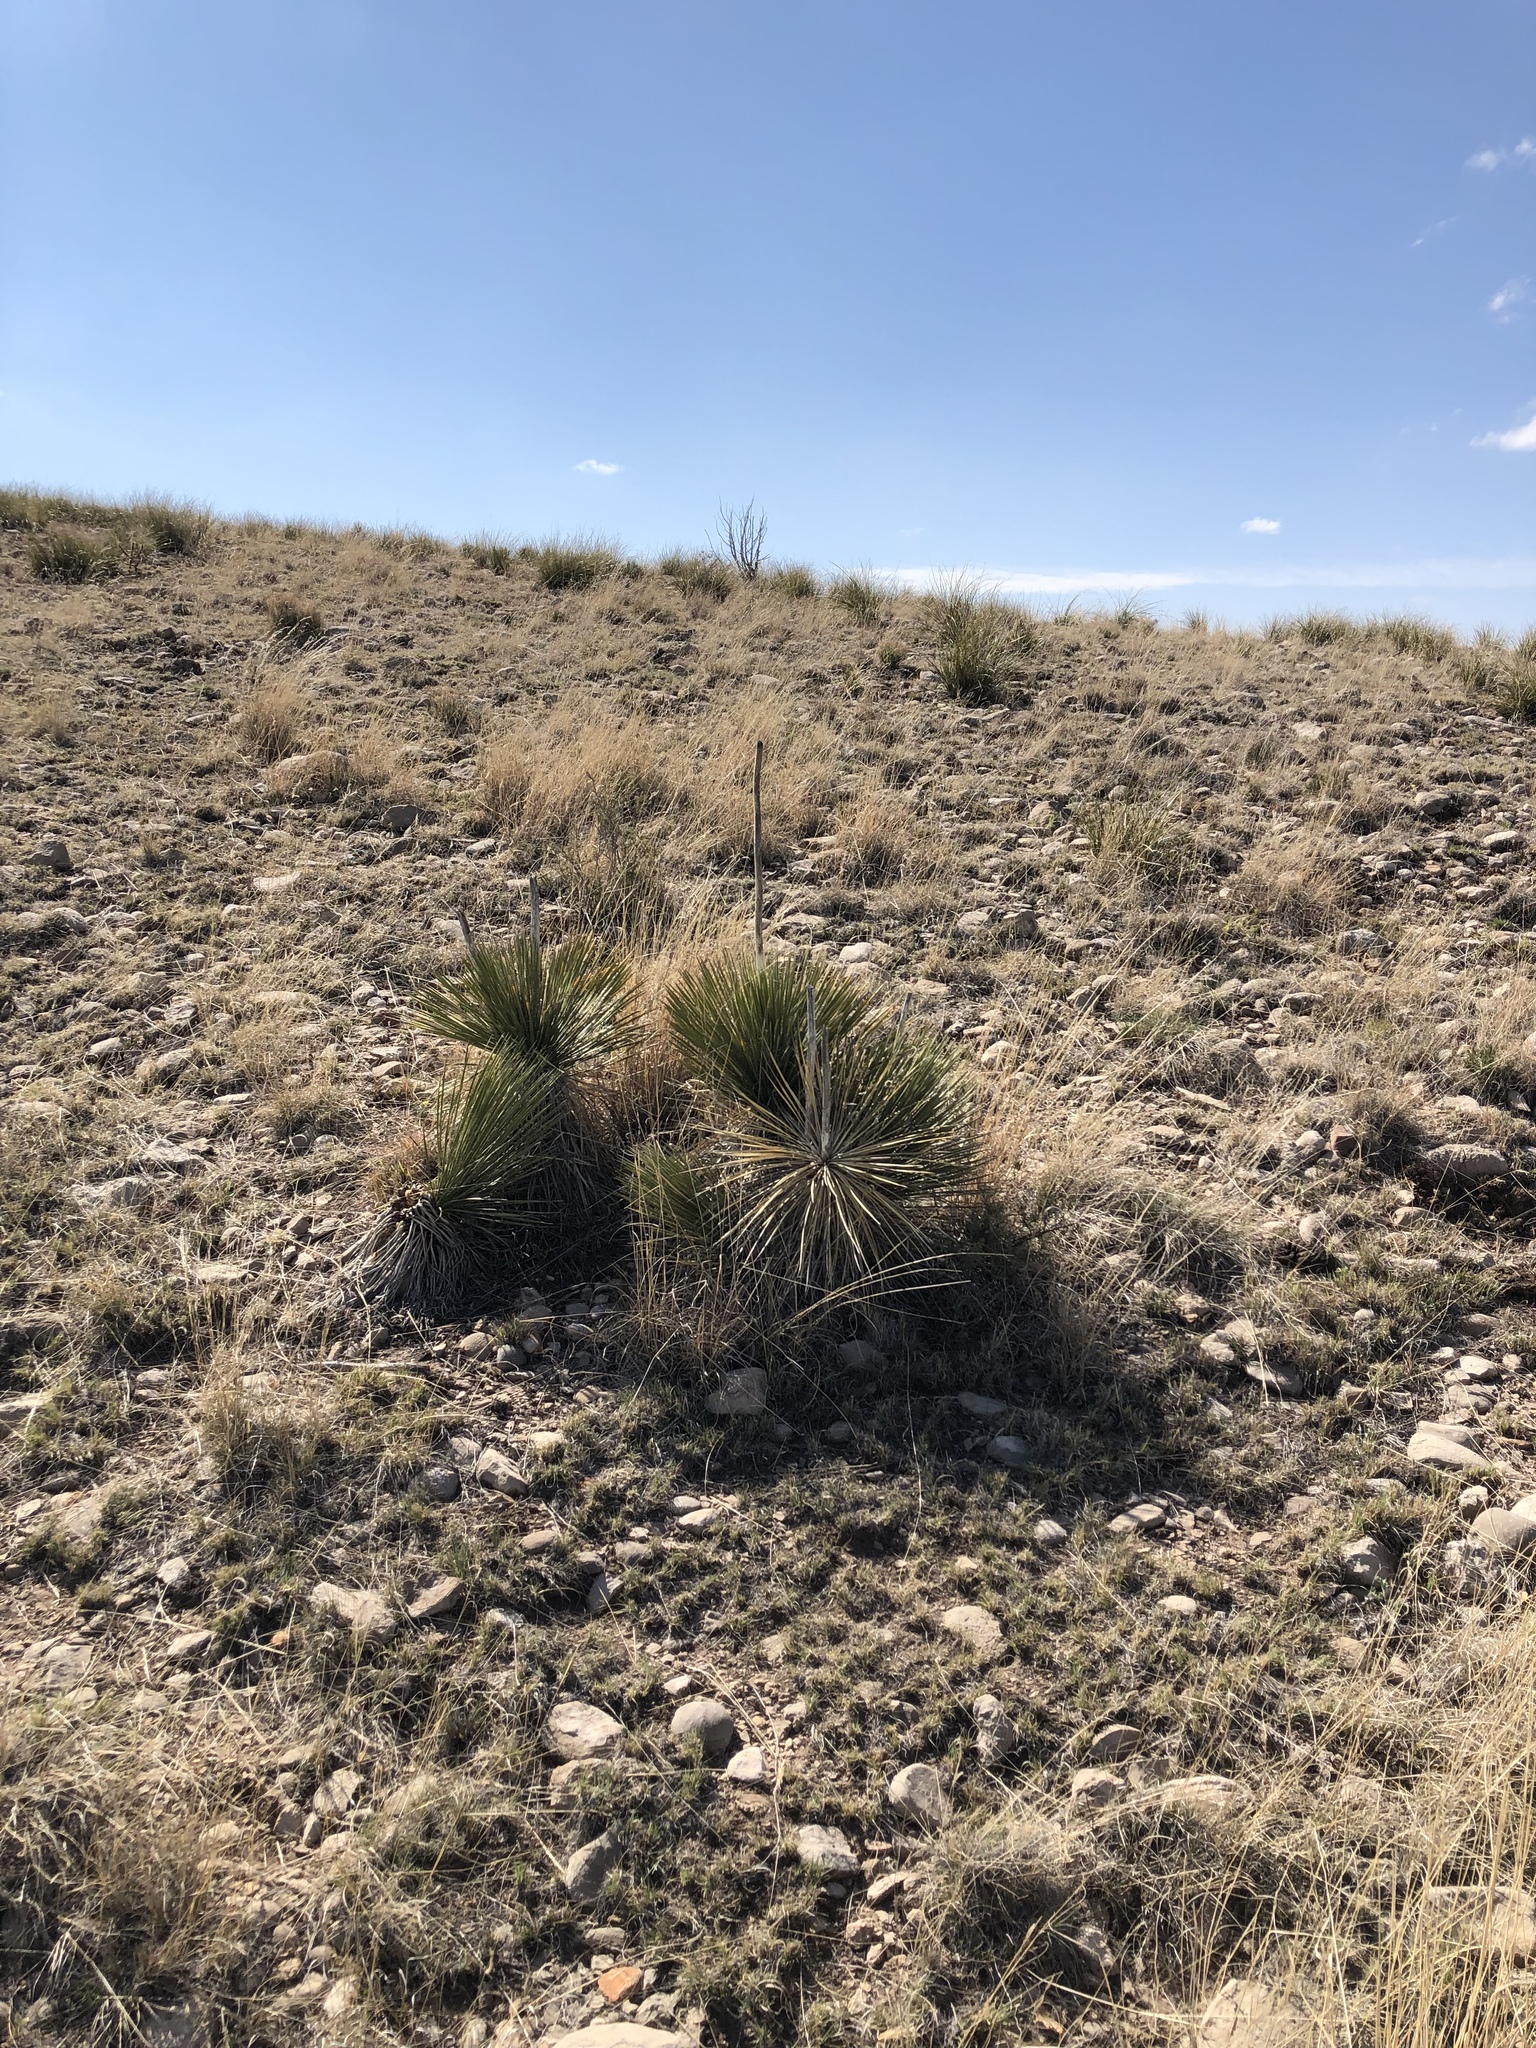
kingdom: Plantae
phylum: Tracheophyta
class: Liliopsida
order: Asparagales
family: Asparagaceae
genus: Yucca
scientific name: Yucca elata
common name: Palmella
